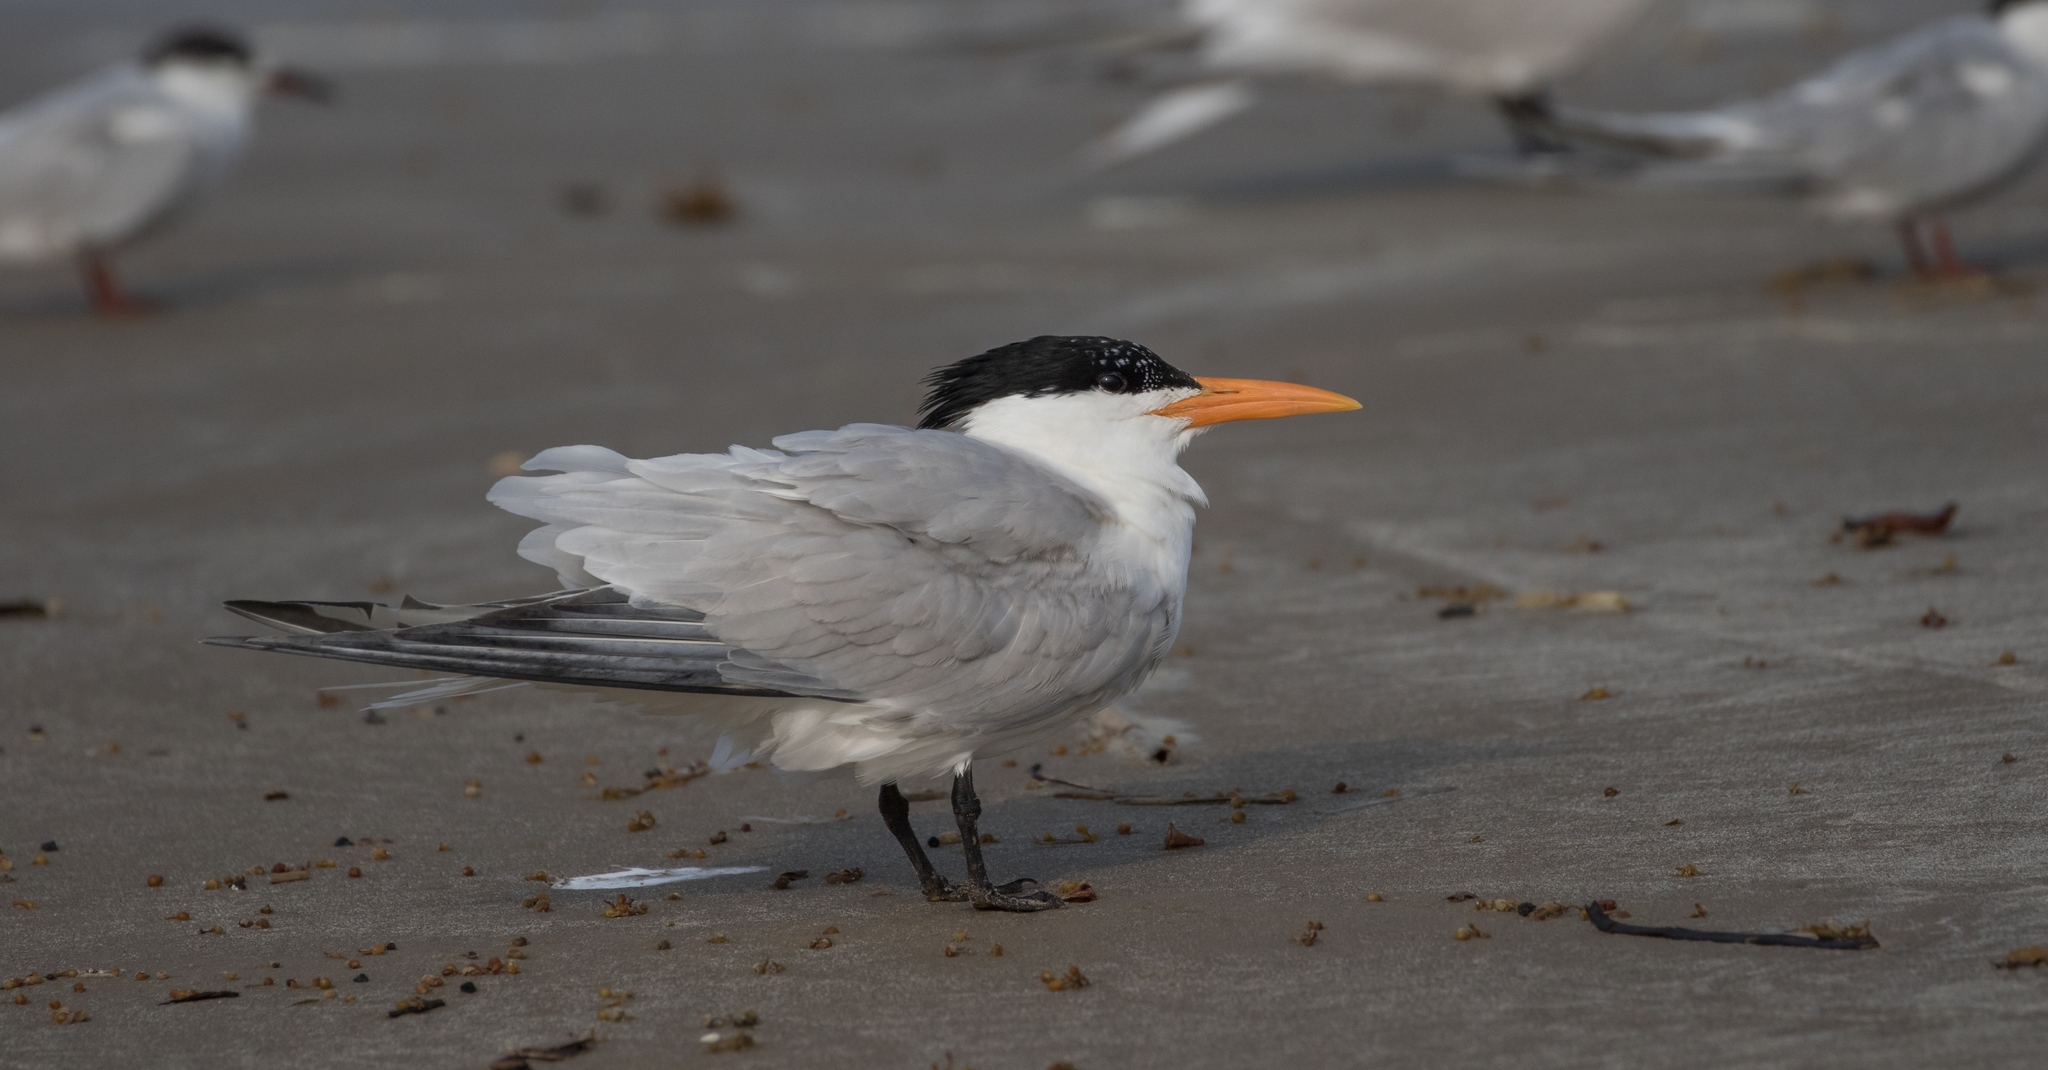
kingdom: Animalia
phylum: Chordata
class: Aves
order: Charadriiformes
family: Laridae
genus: Thalasseus
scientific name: Thalasseus maximus
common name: Royal tern
